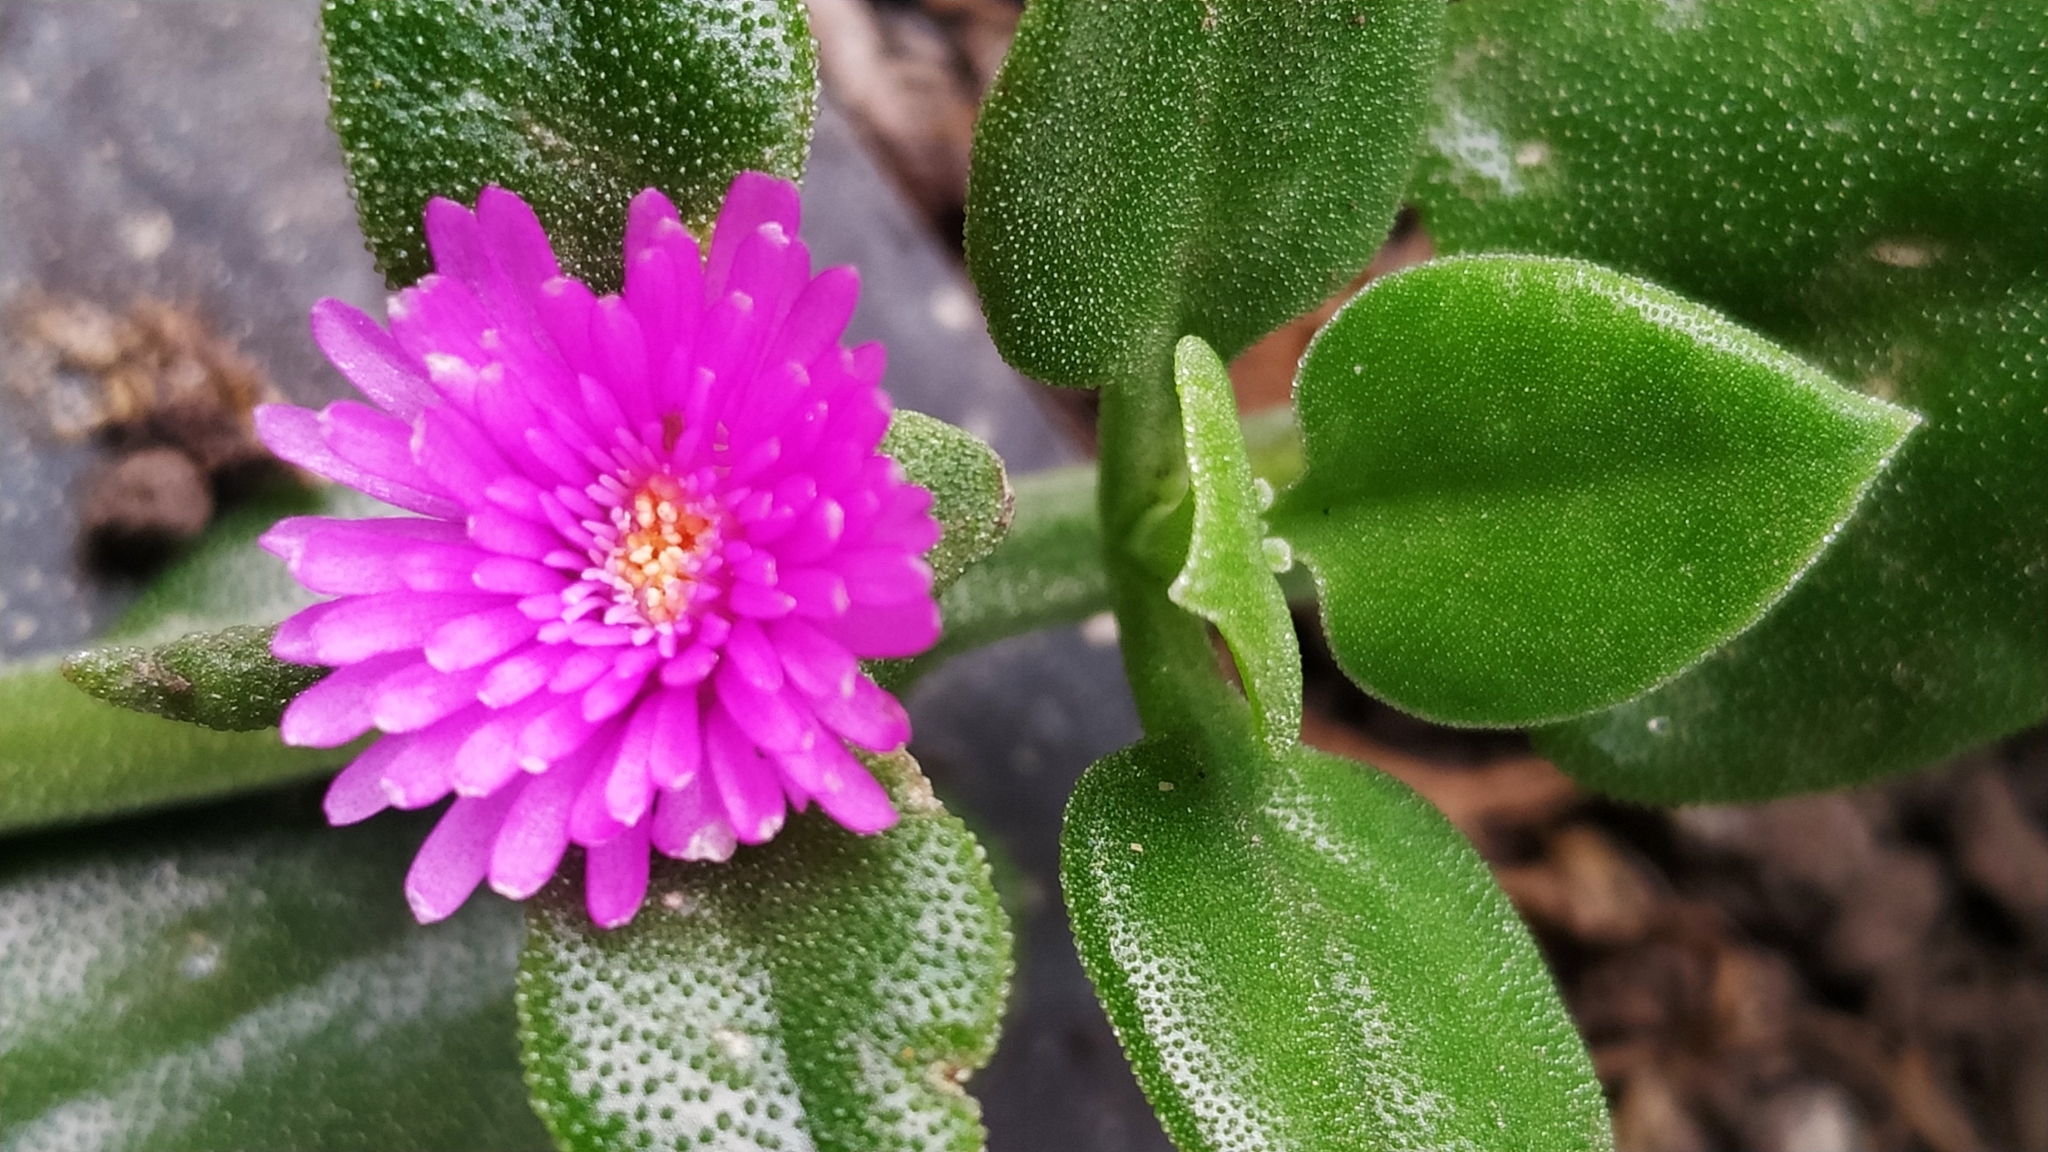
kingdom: Plantae
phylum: Tracheophyta
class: Magnoliopsida
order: Caryophyllales
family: Aizoaceae
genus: Mesembryanthemum
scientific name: Mesembryanthemum cordifolium
